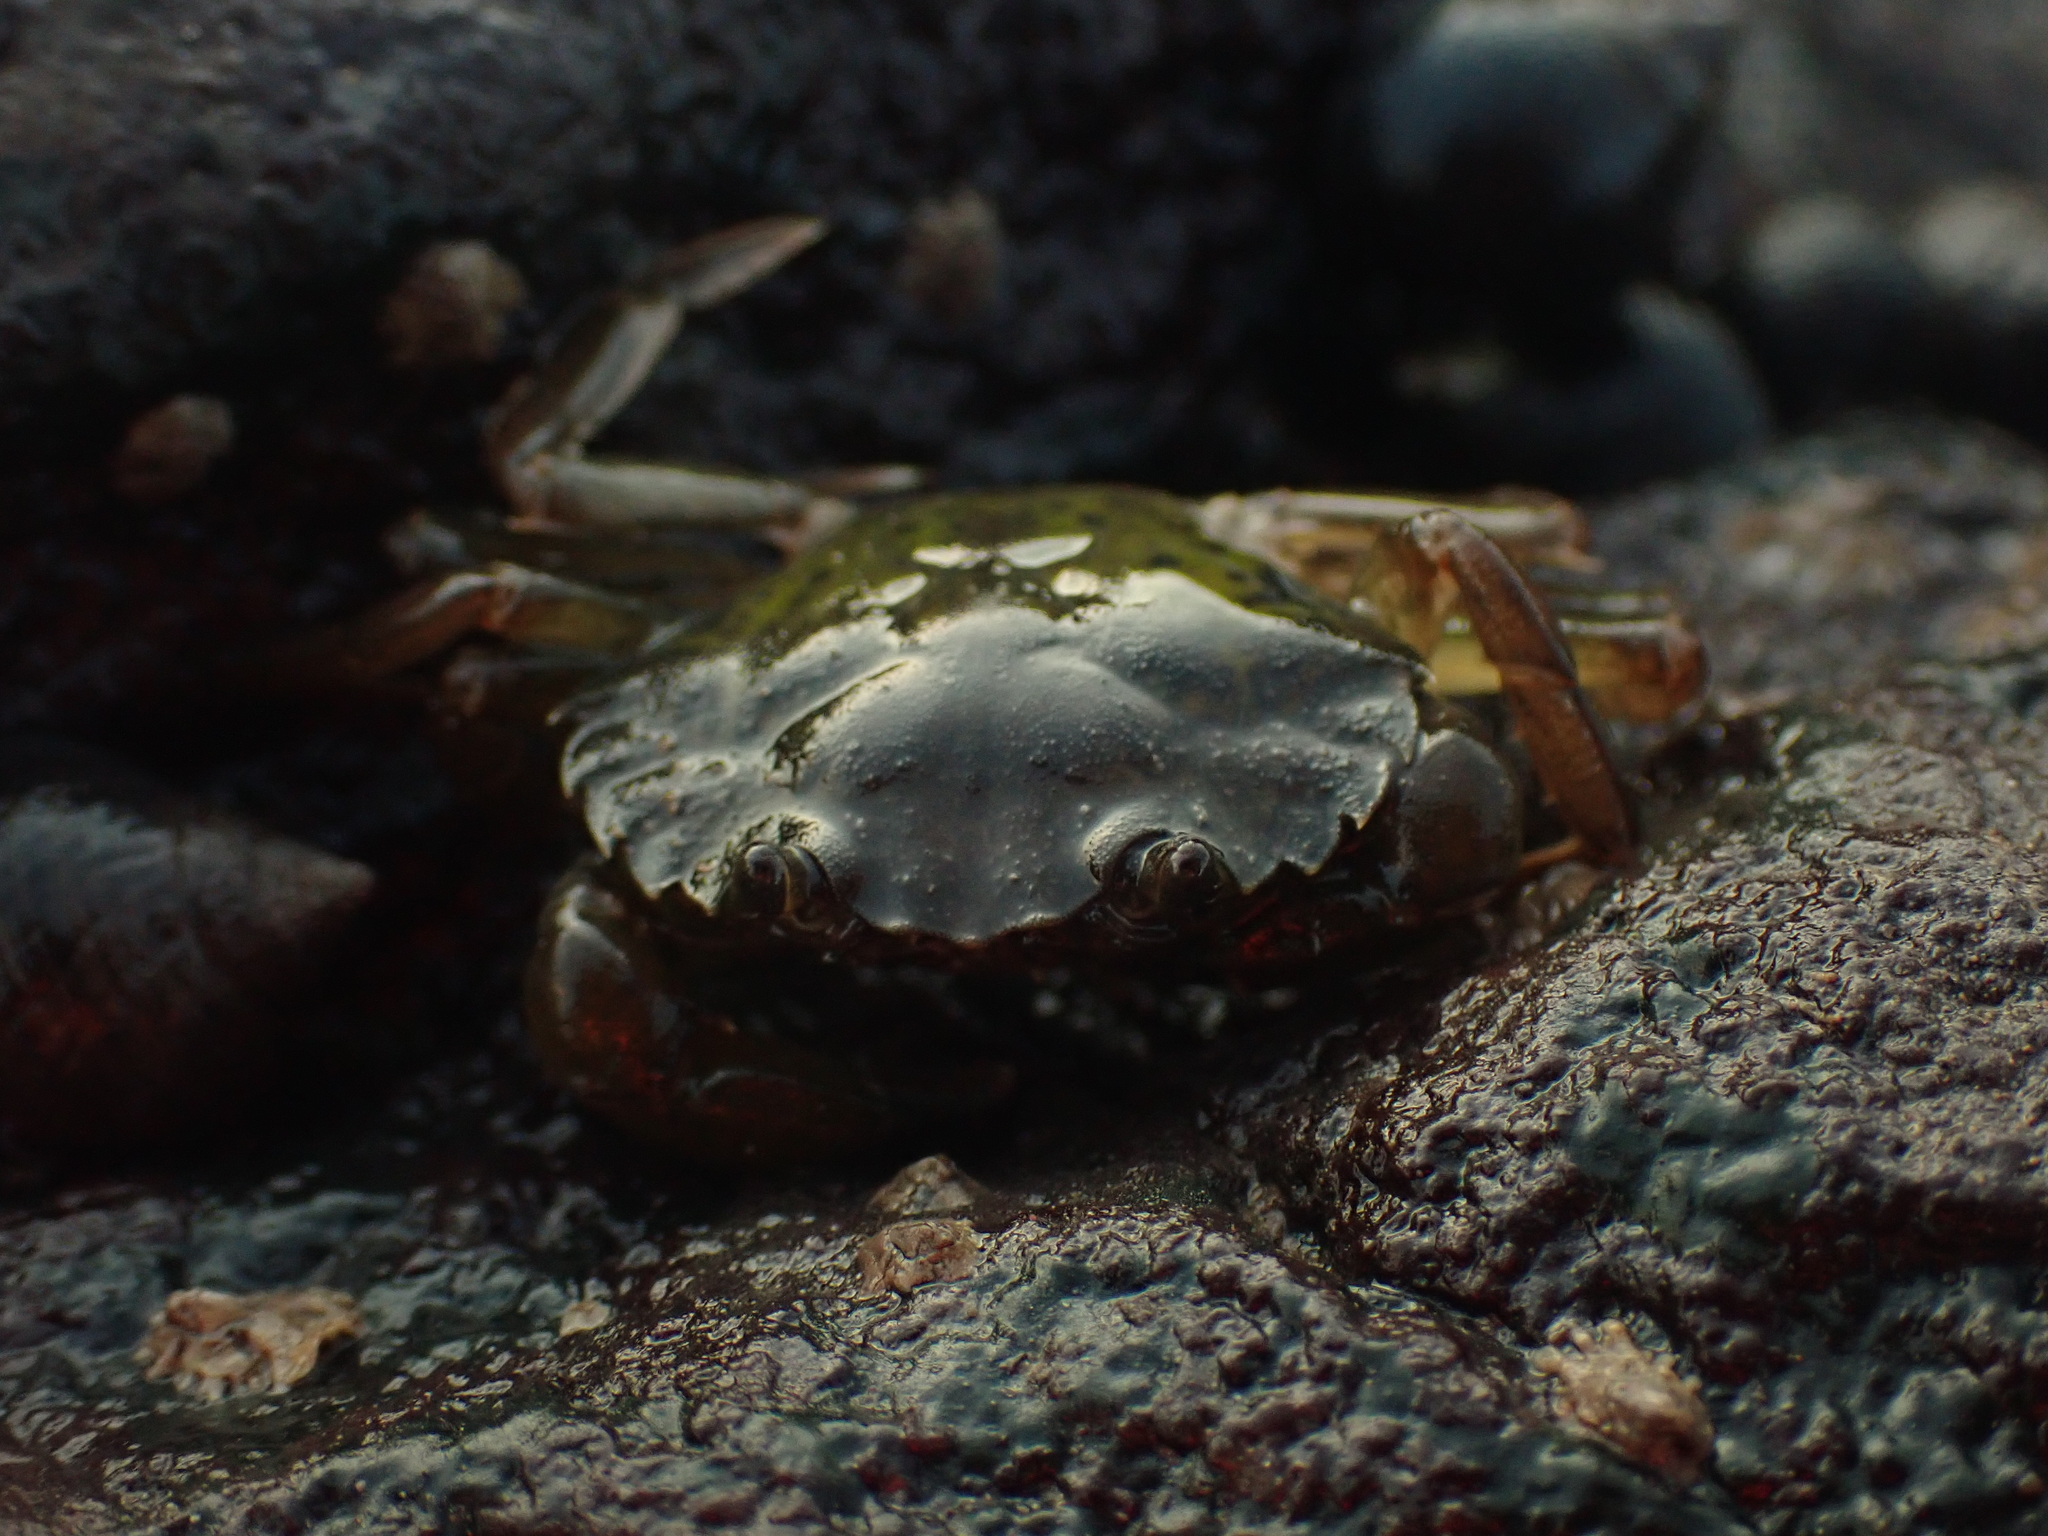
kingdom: Animalia
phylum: Arthropoda
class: Malacostraca
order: Decapoda
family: Carcinidae
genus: Carcinus
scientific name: Carcinus maenas
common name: European green crab
